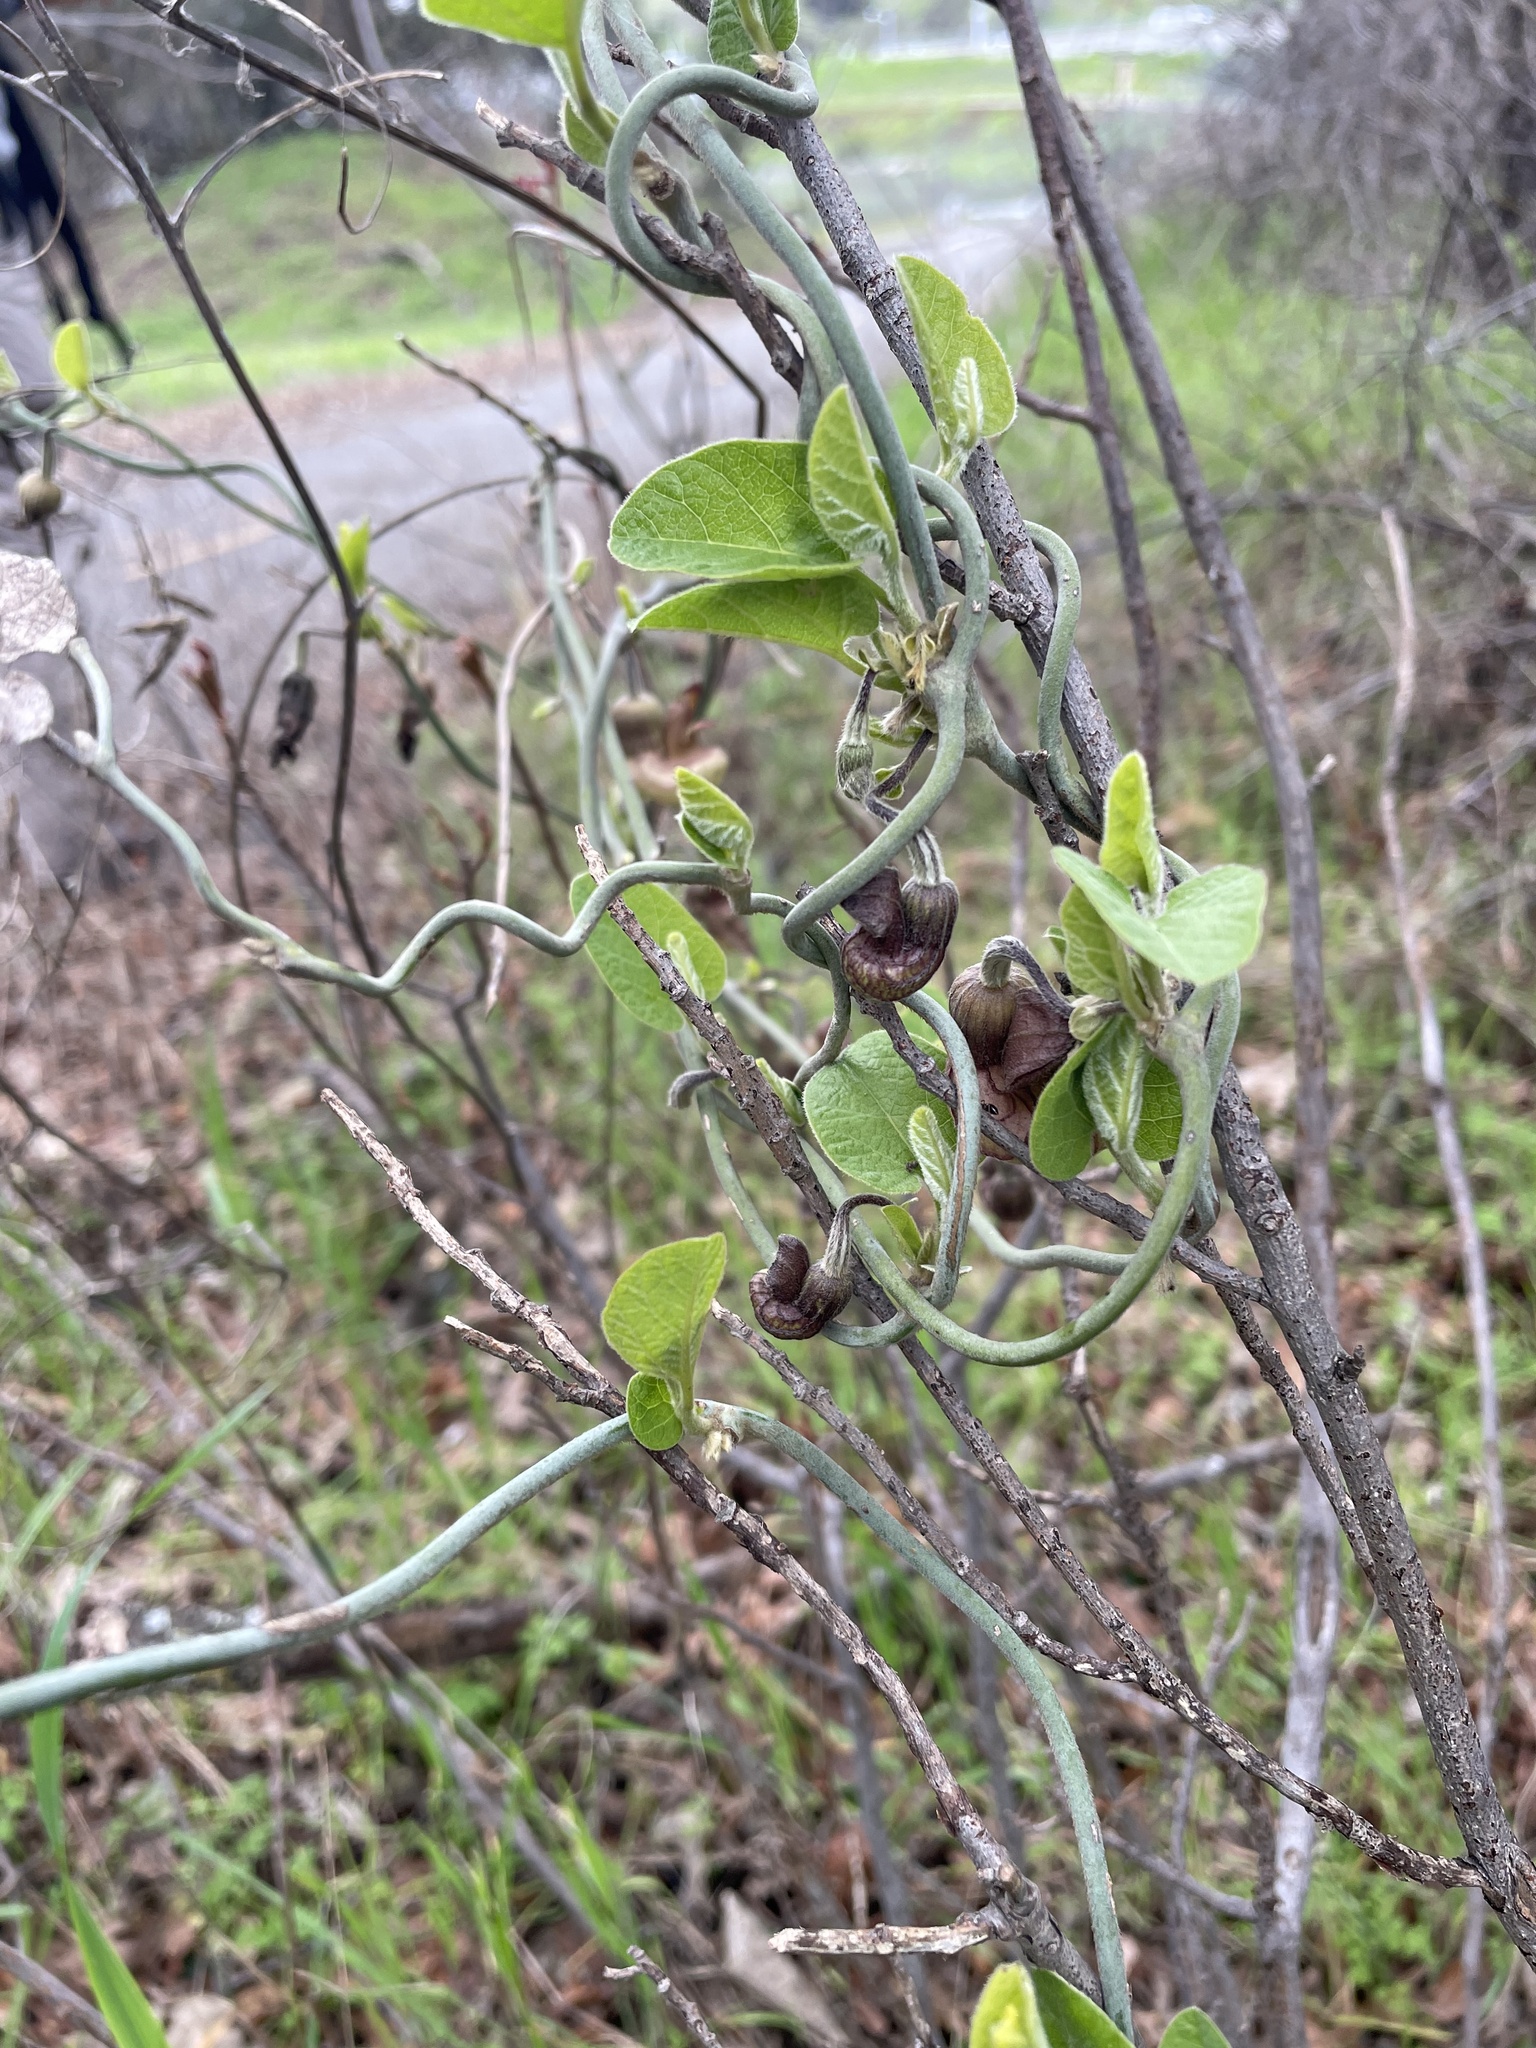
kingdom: Plantae
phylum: Tracheophyta
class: Magnoliopsida
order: Piperales
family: Aristolochiaceae
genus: Isotrema
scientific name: Isotrema californicum
